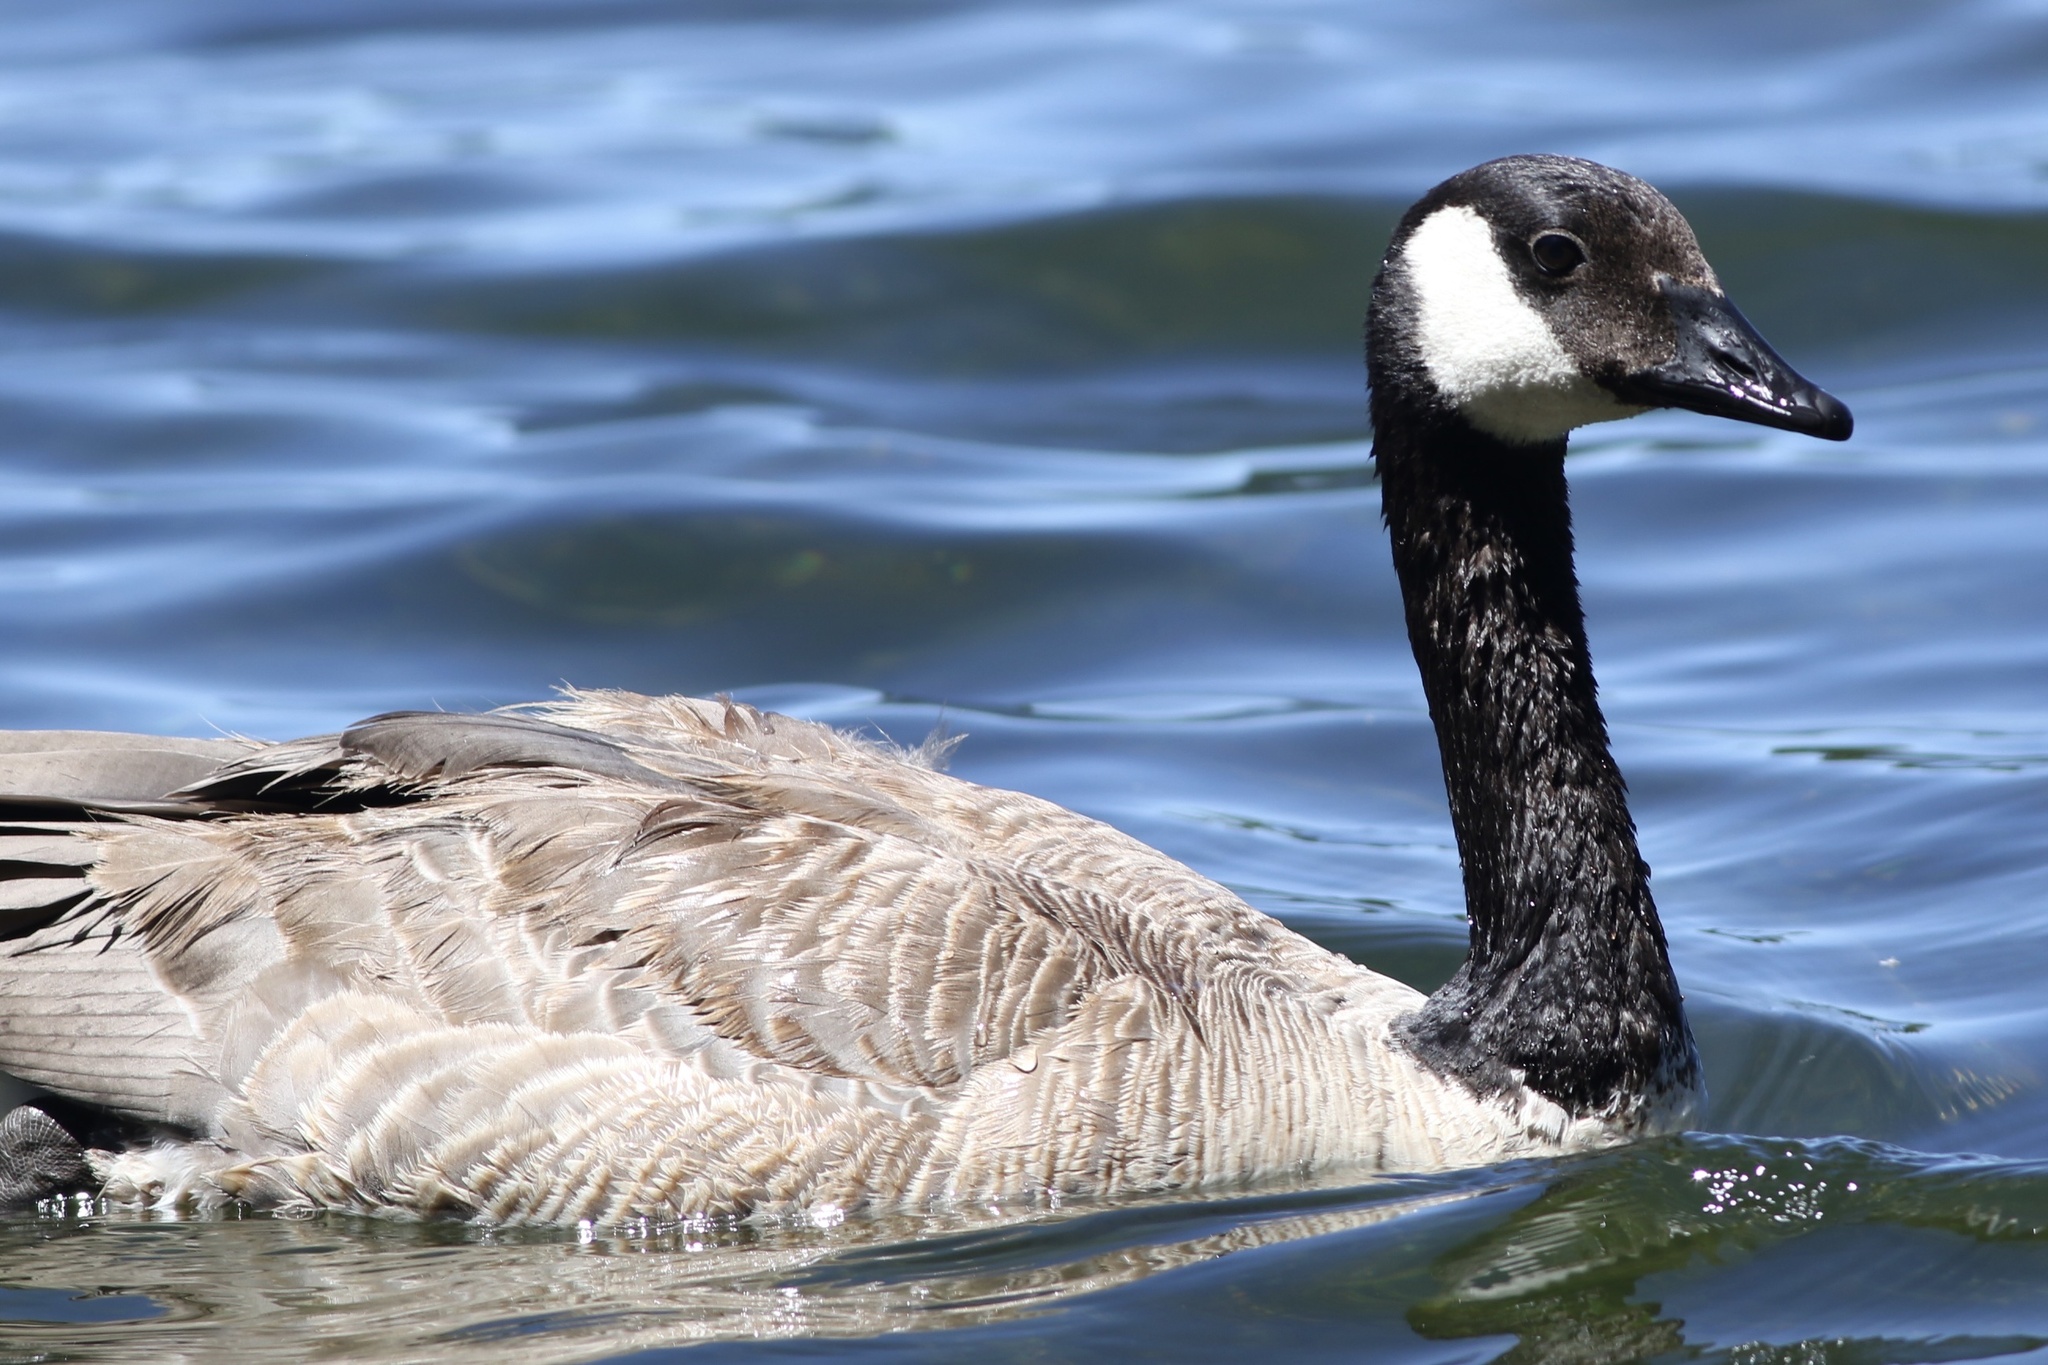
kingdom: Animalia
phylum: Chordata
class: Aves
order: Anseriformes
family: Anatidae
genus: Branta
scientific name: Branta canadensis
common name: Canada goose
